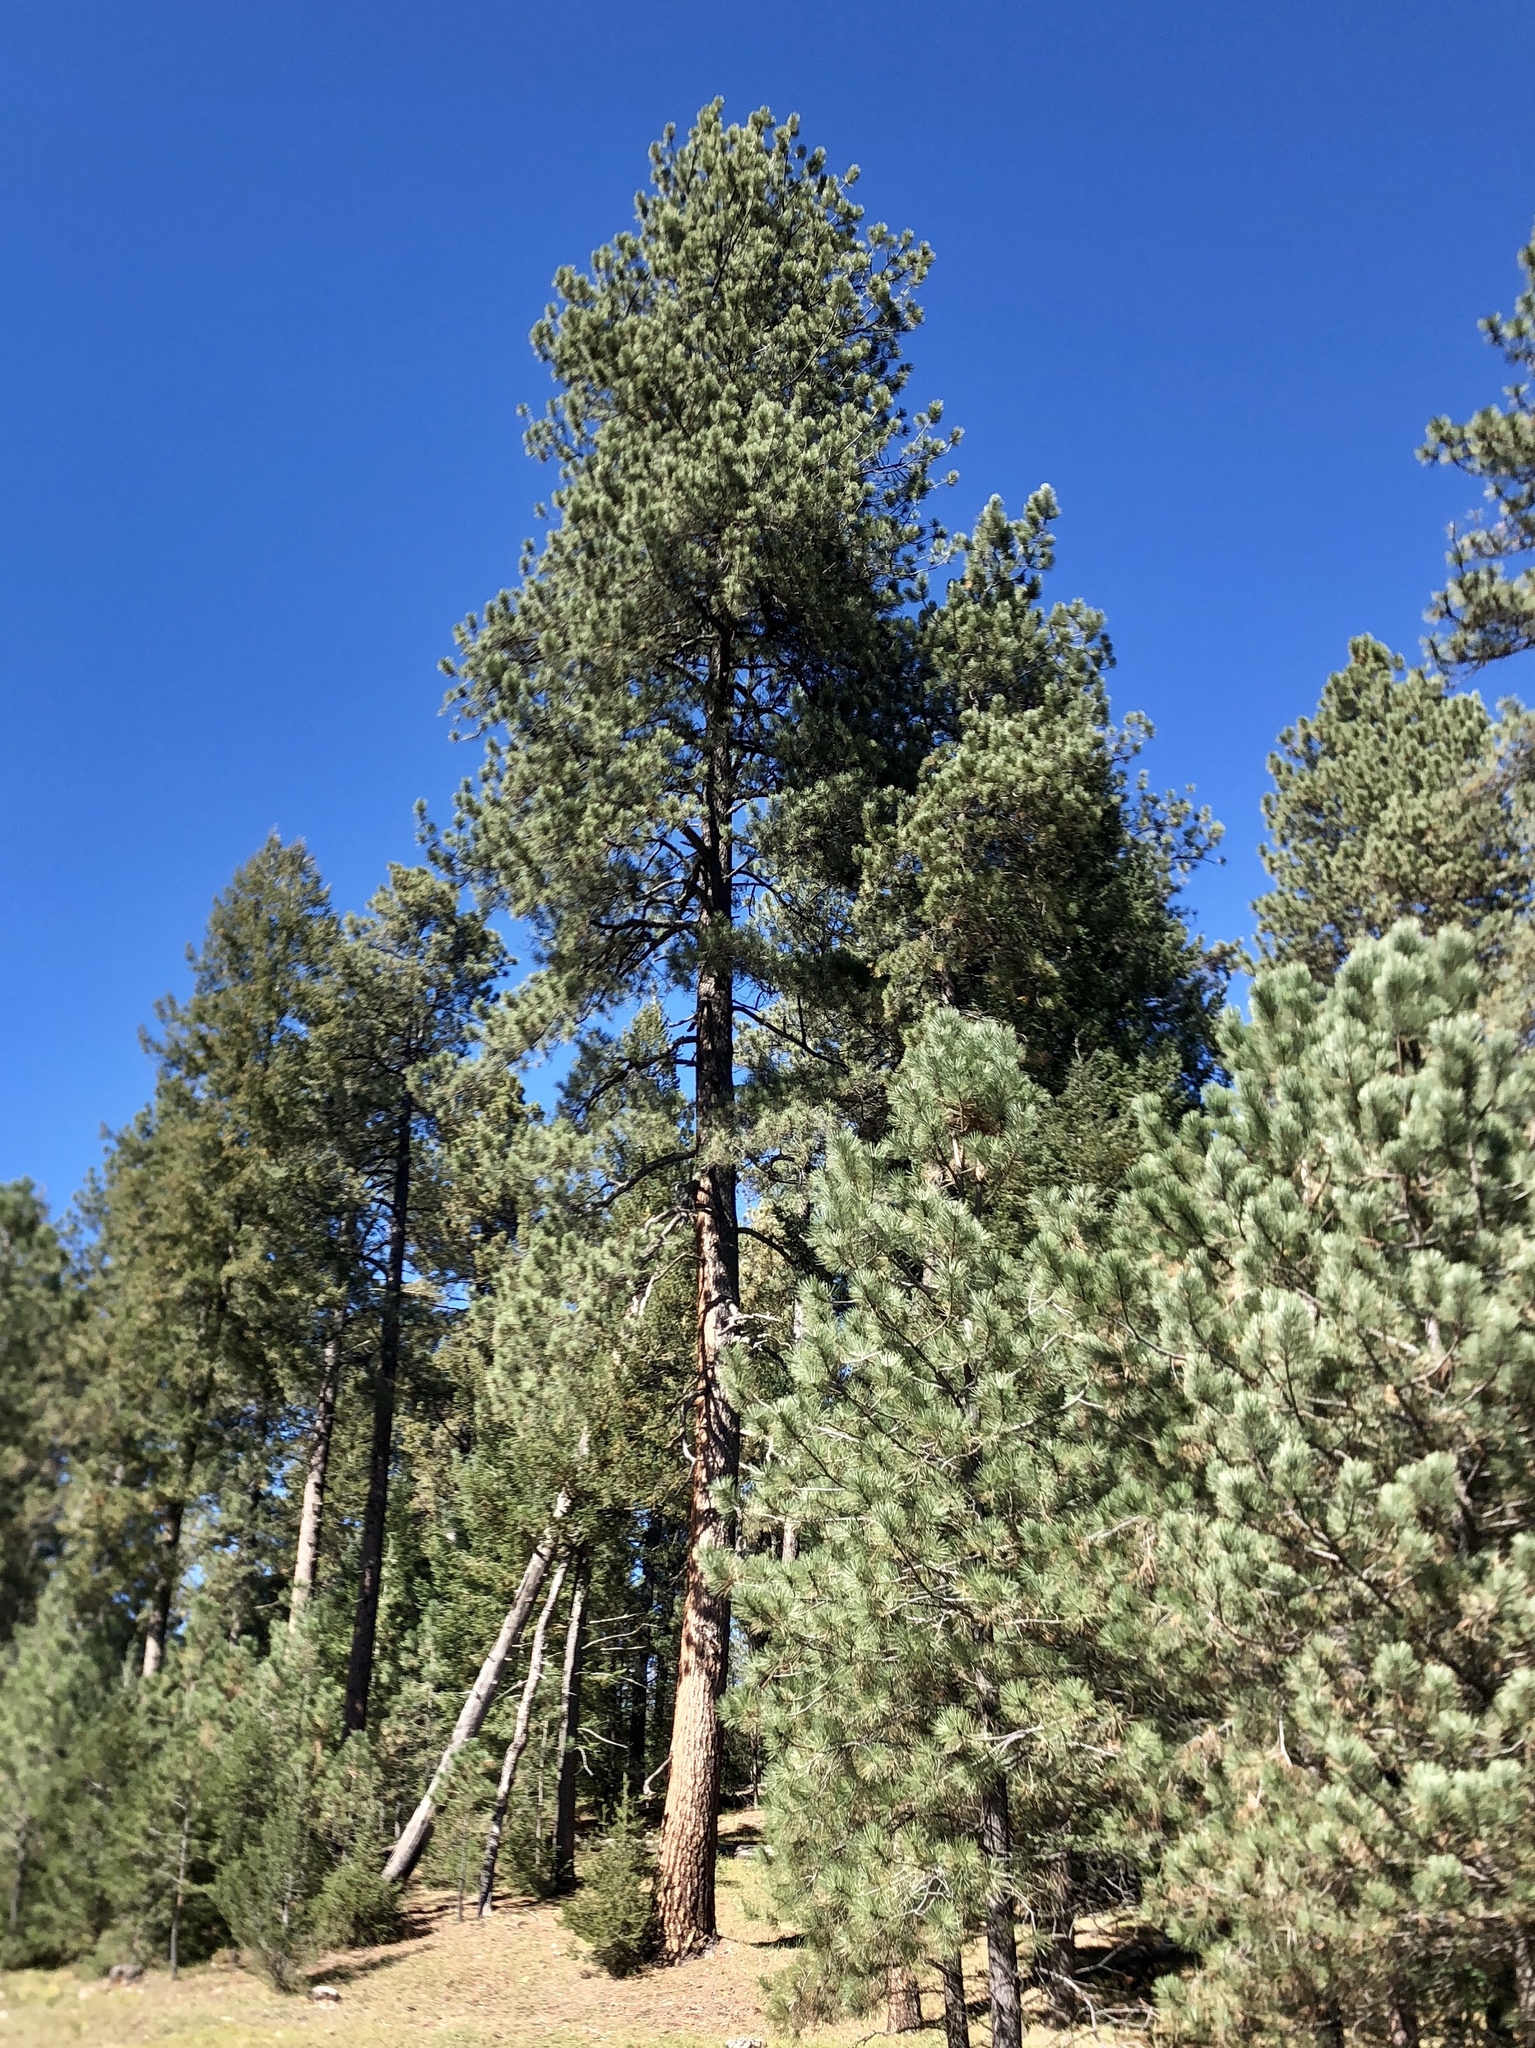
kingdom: Plantae
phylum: Tracheophyta
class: Pinopsida
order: Pinales
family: Pinaceae
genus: Pinus
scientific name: Pinus ponderosa
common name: Western yellow-pine
